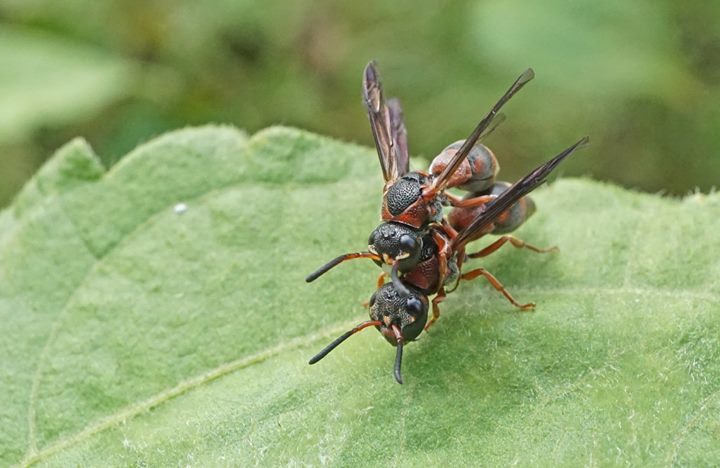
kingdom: Animalia
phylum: Arthropoda
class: Insecta
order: Hymenoptera
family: Eumenidae
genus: Rhynchalastor
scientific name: Rhynchalastor fundatiformis
